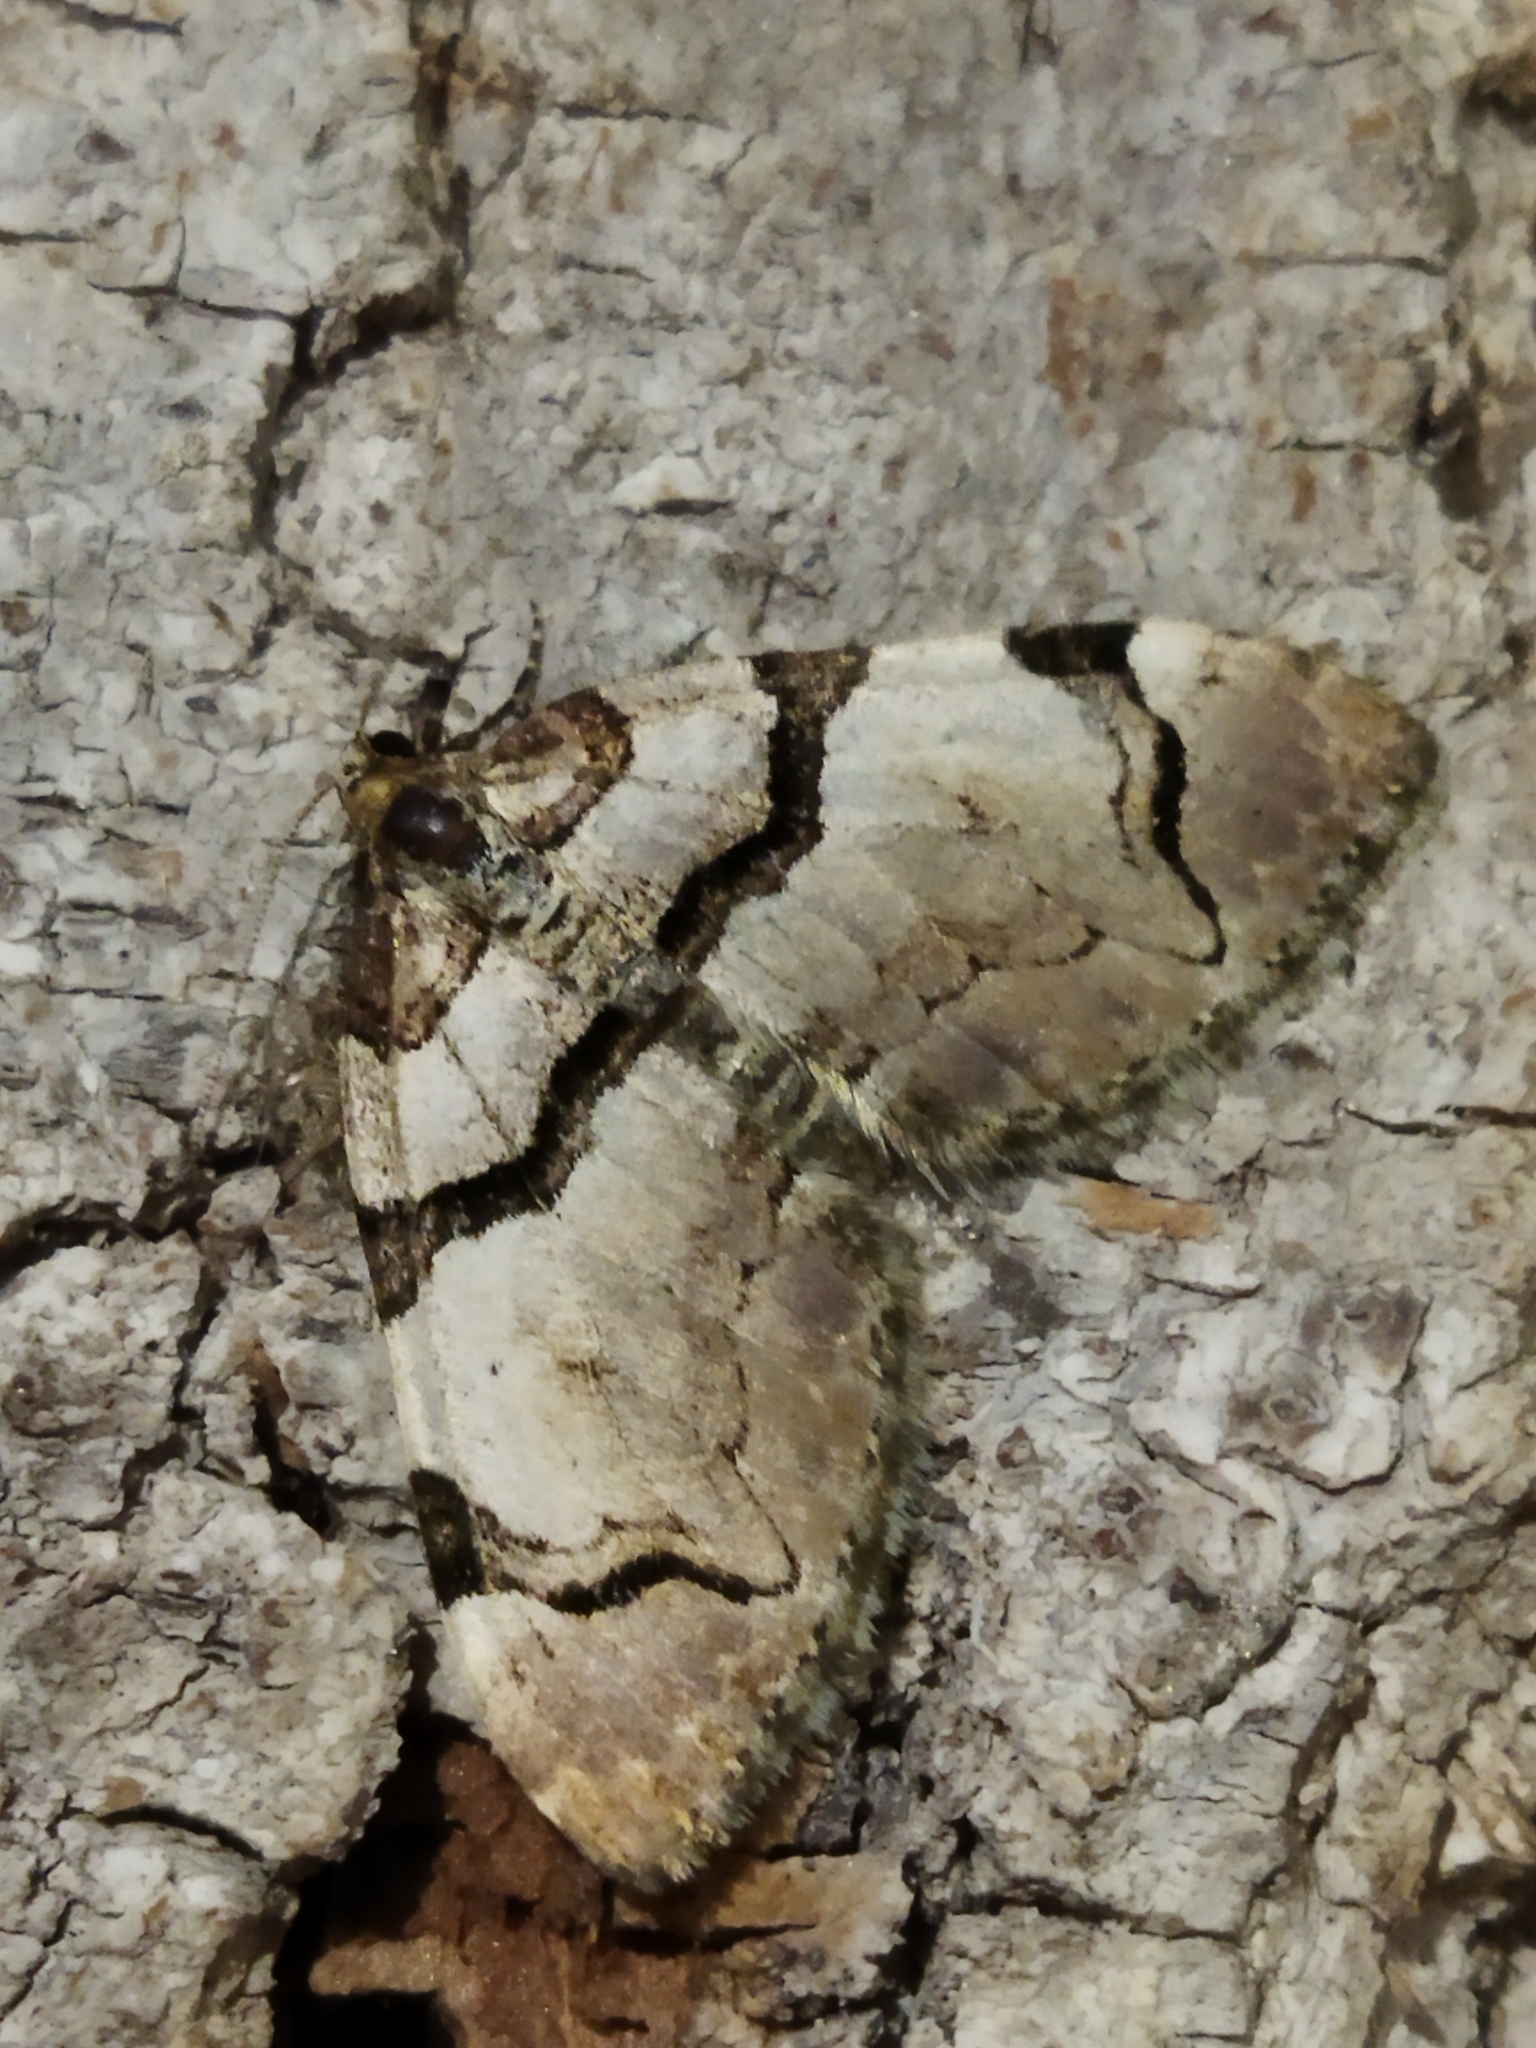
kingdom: Animalia
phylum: Arthropoda
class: Insecta
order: Lepidoptera
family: Geometridae
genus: Anticlea
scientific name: Anticlea derivata
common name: Streamer
